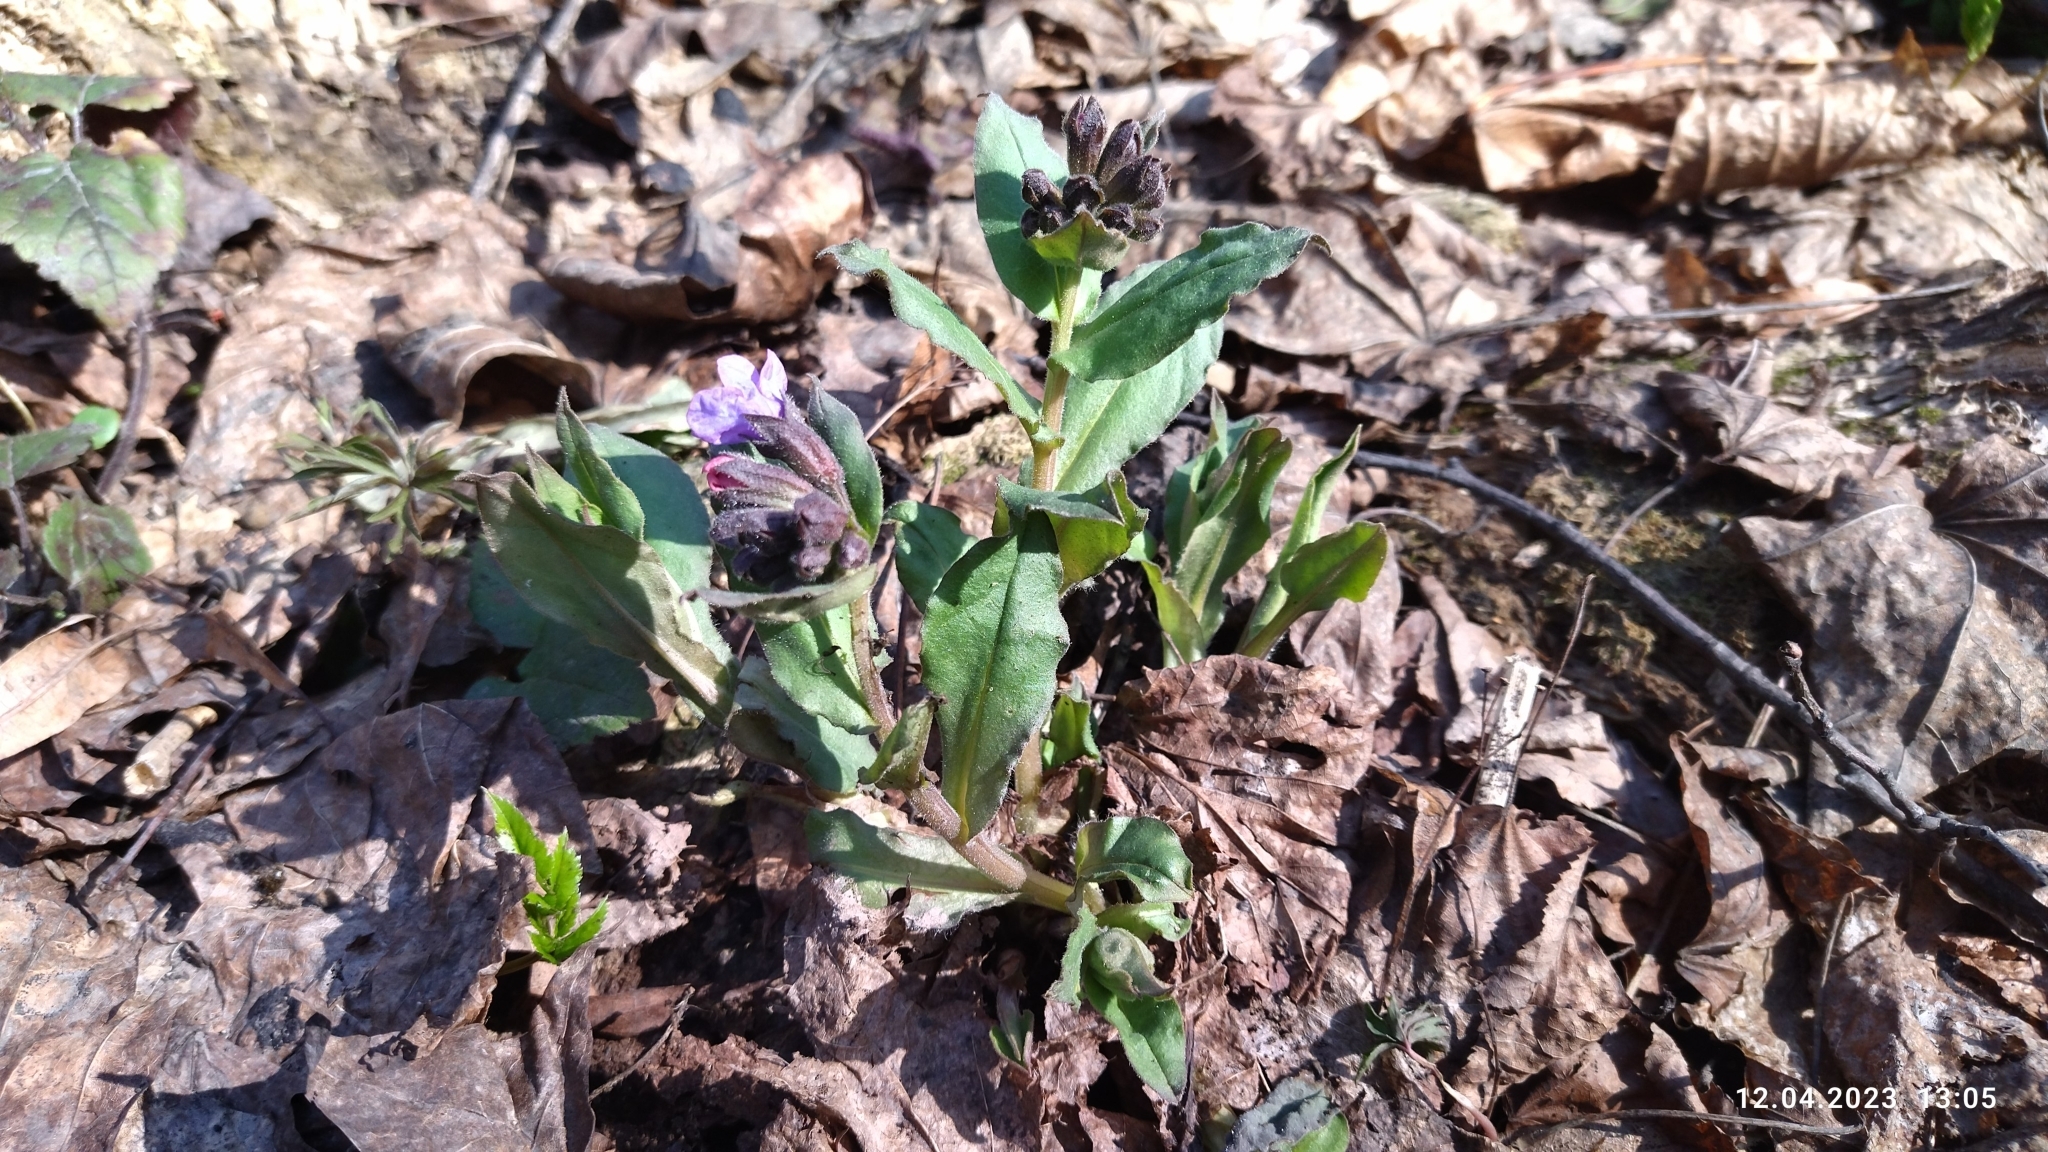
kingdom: Plantae
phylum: Tracheophyta
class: Magnoliopsida
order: Boraginales
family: Boraginaceae
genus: Pulmonaria
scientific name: Pulmonaria obscura
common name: Suffolk lungwort
